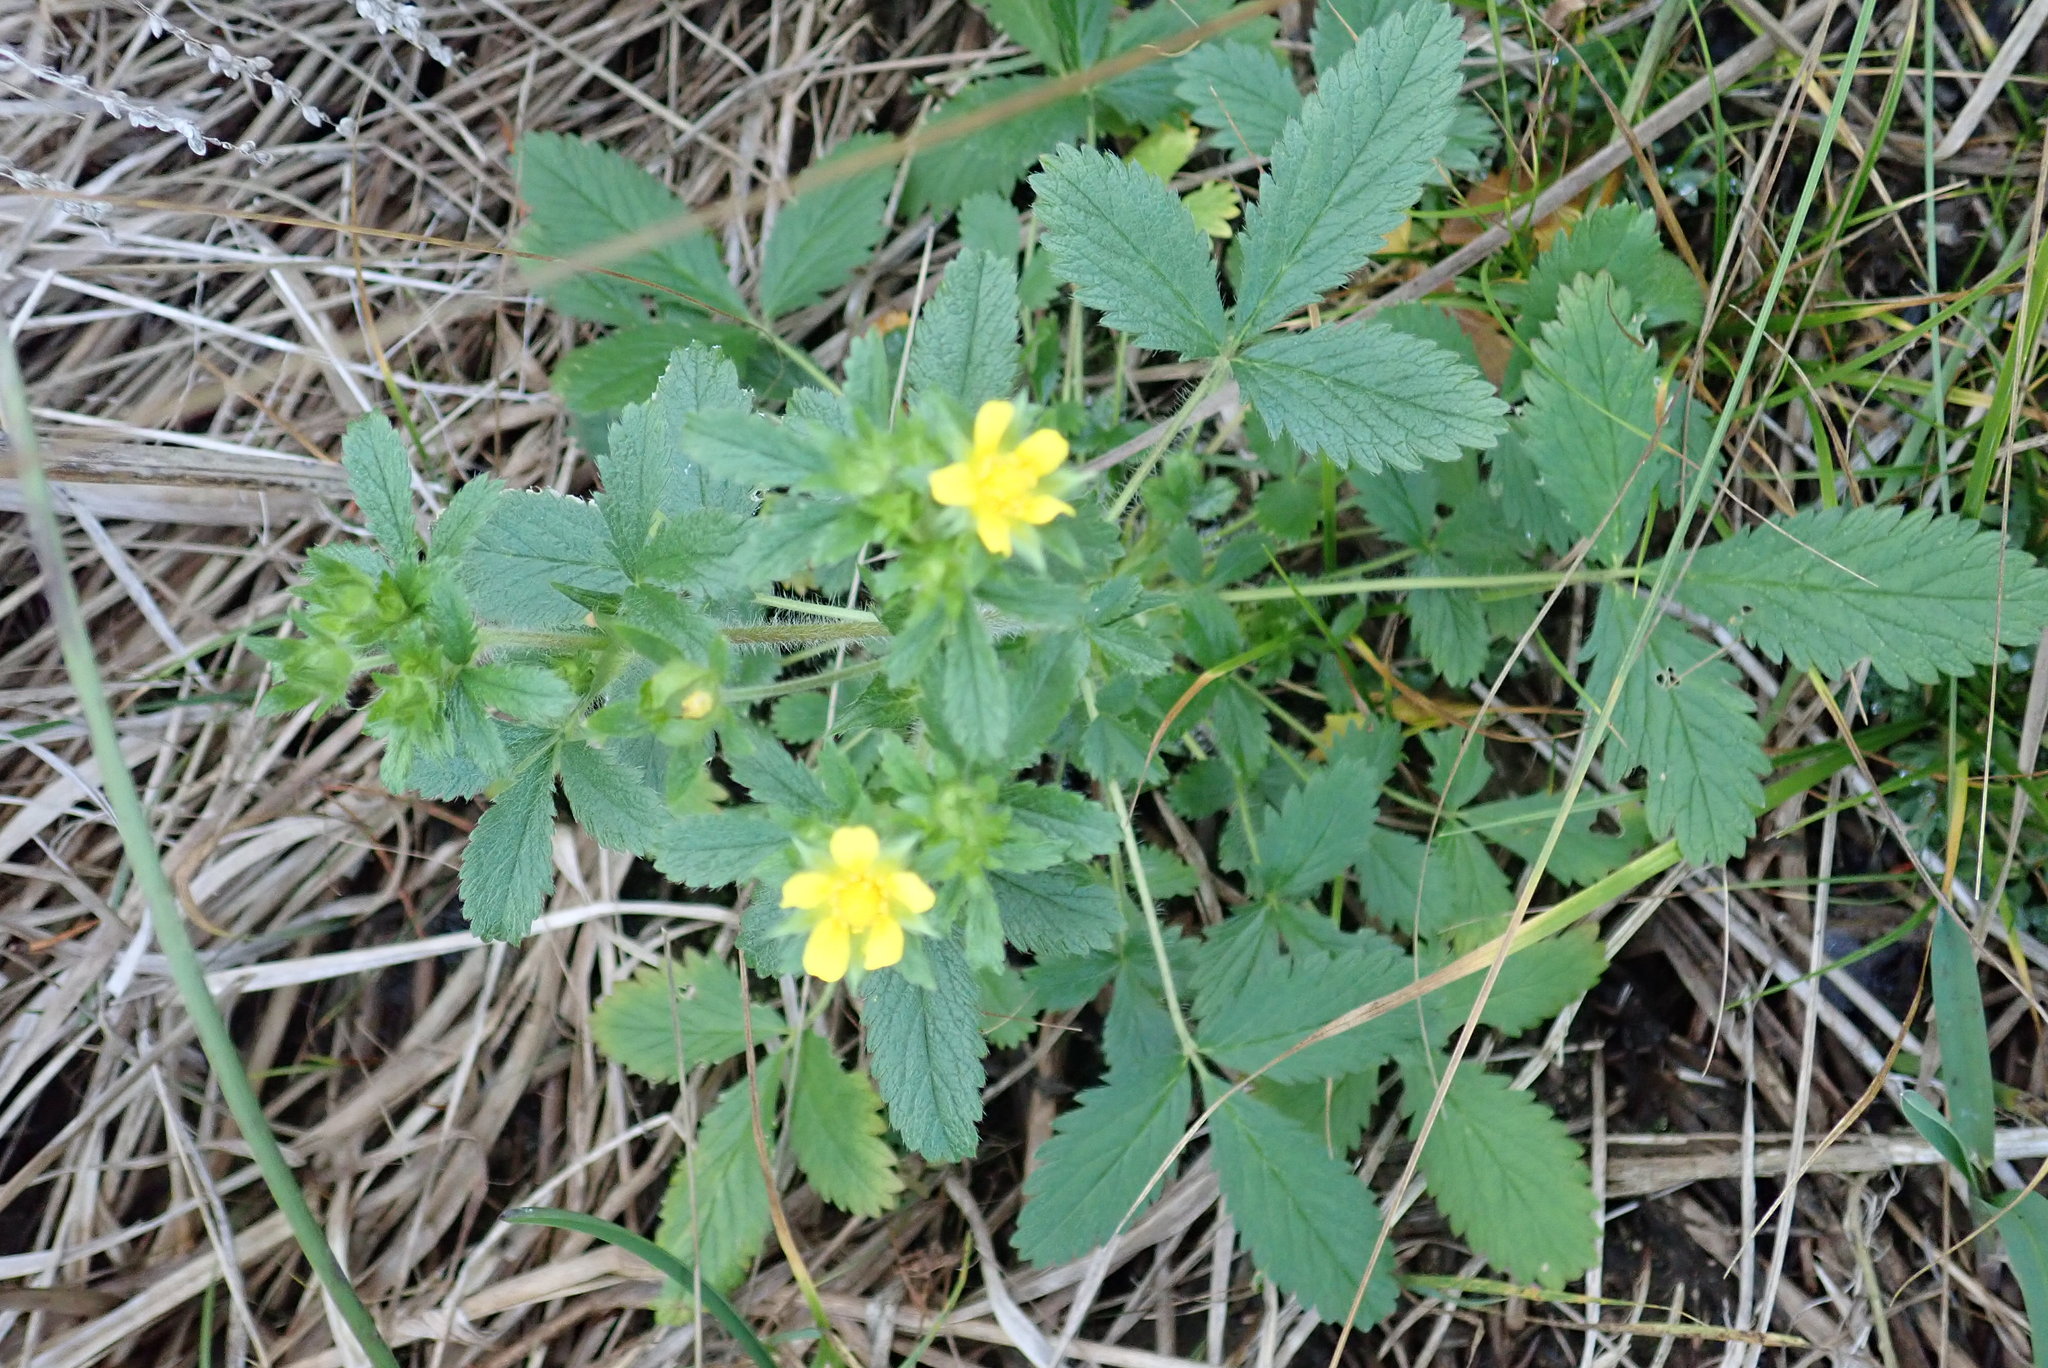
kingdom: Plantae
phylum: Tracheophyta
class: Magnoliopsida
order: Rosales
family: Rosaceae
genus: Potentilla
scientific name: Potentilla norvegica
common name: Ternate-leaved cinquefoil
